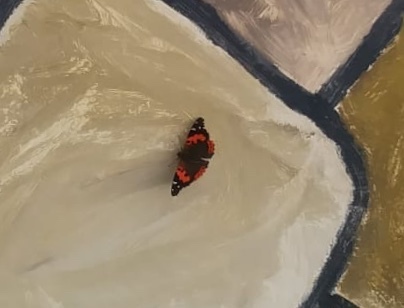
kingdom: Animalia
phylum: Arthropoda
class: Insecta
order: Lepidoptera
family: Nymphalidae
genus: Vanessa
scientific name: Vanessa vulcania
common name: Canary red admiral
